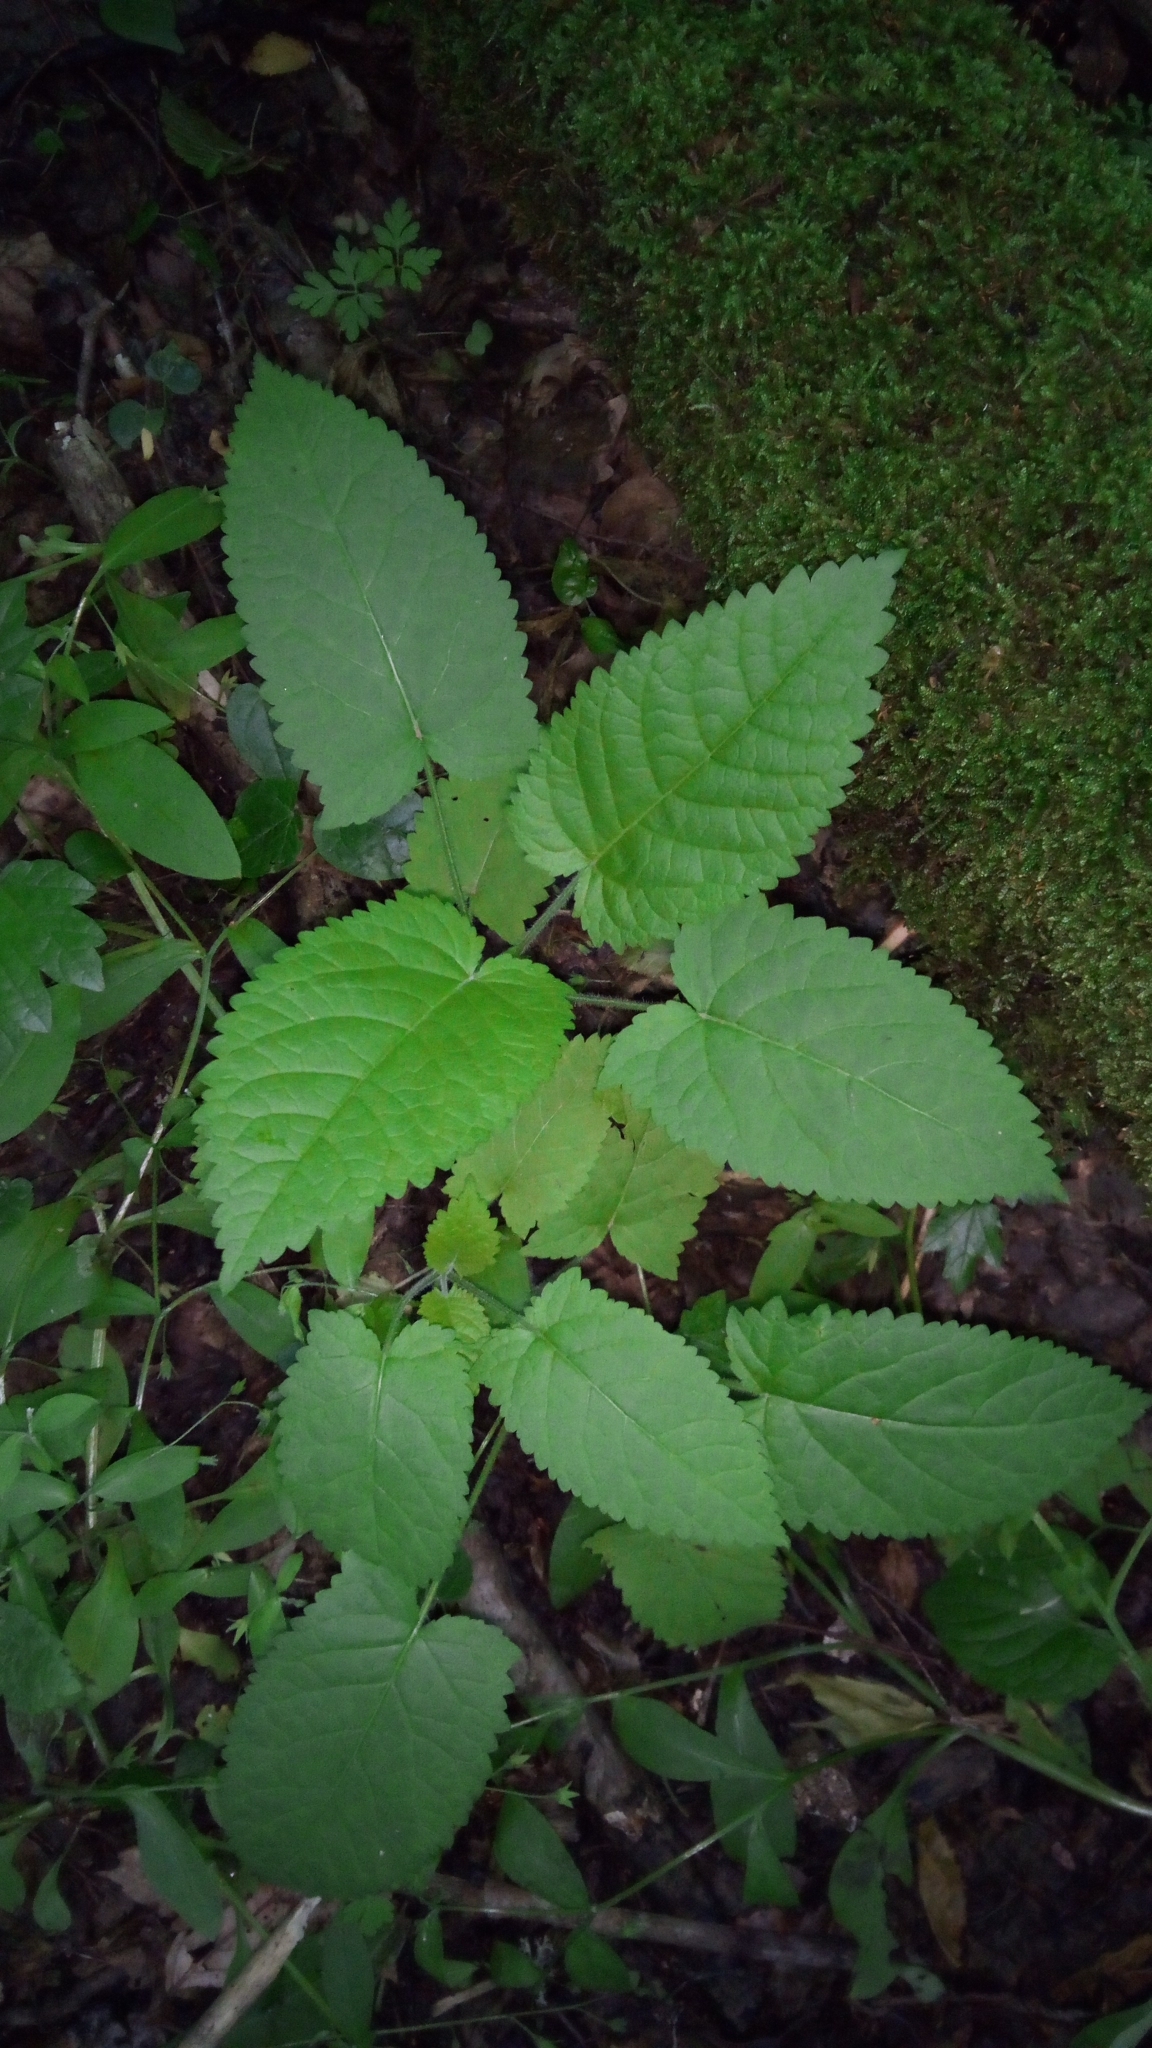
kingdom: Plantae
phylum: Tracheophyta
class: Magnoliopsida
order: Lamiales
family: Lamiaceae
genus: Salvia
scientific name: Salvia glutinosa
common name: Sticky clary
